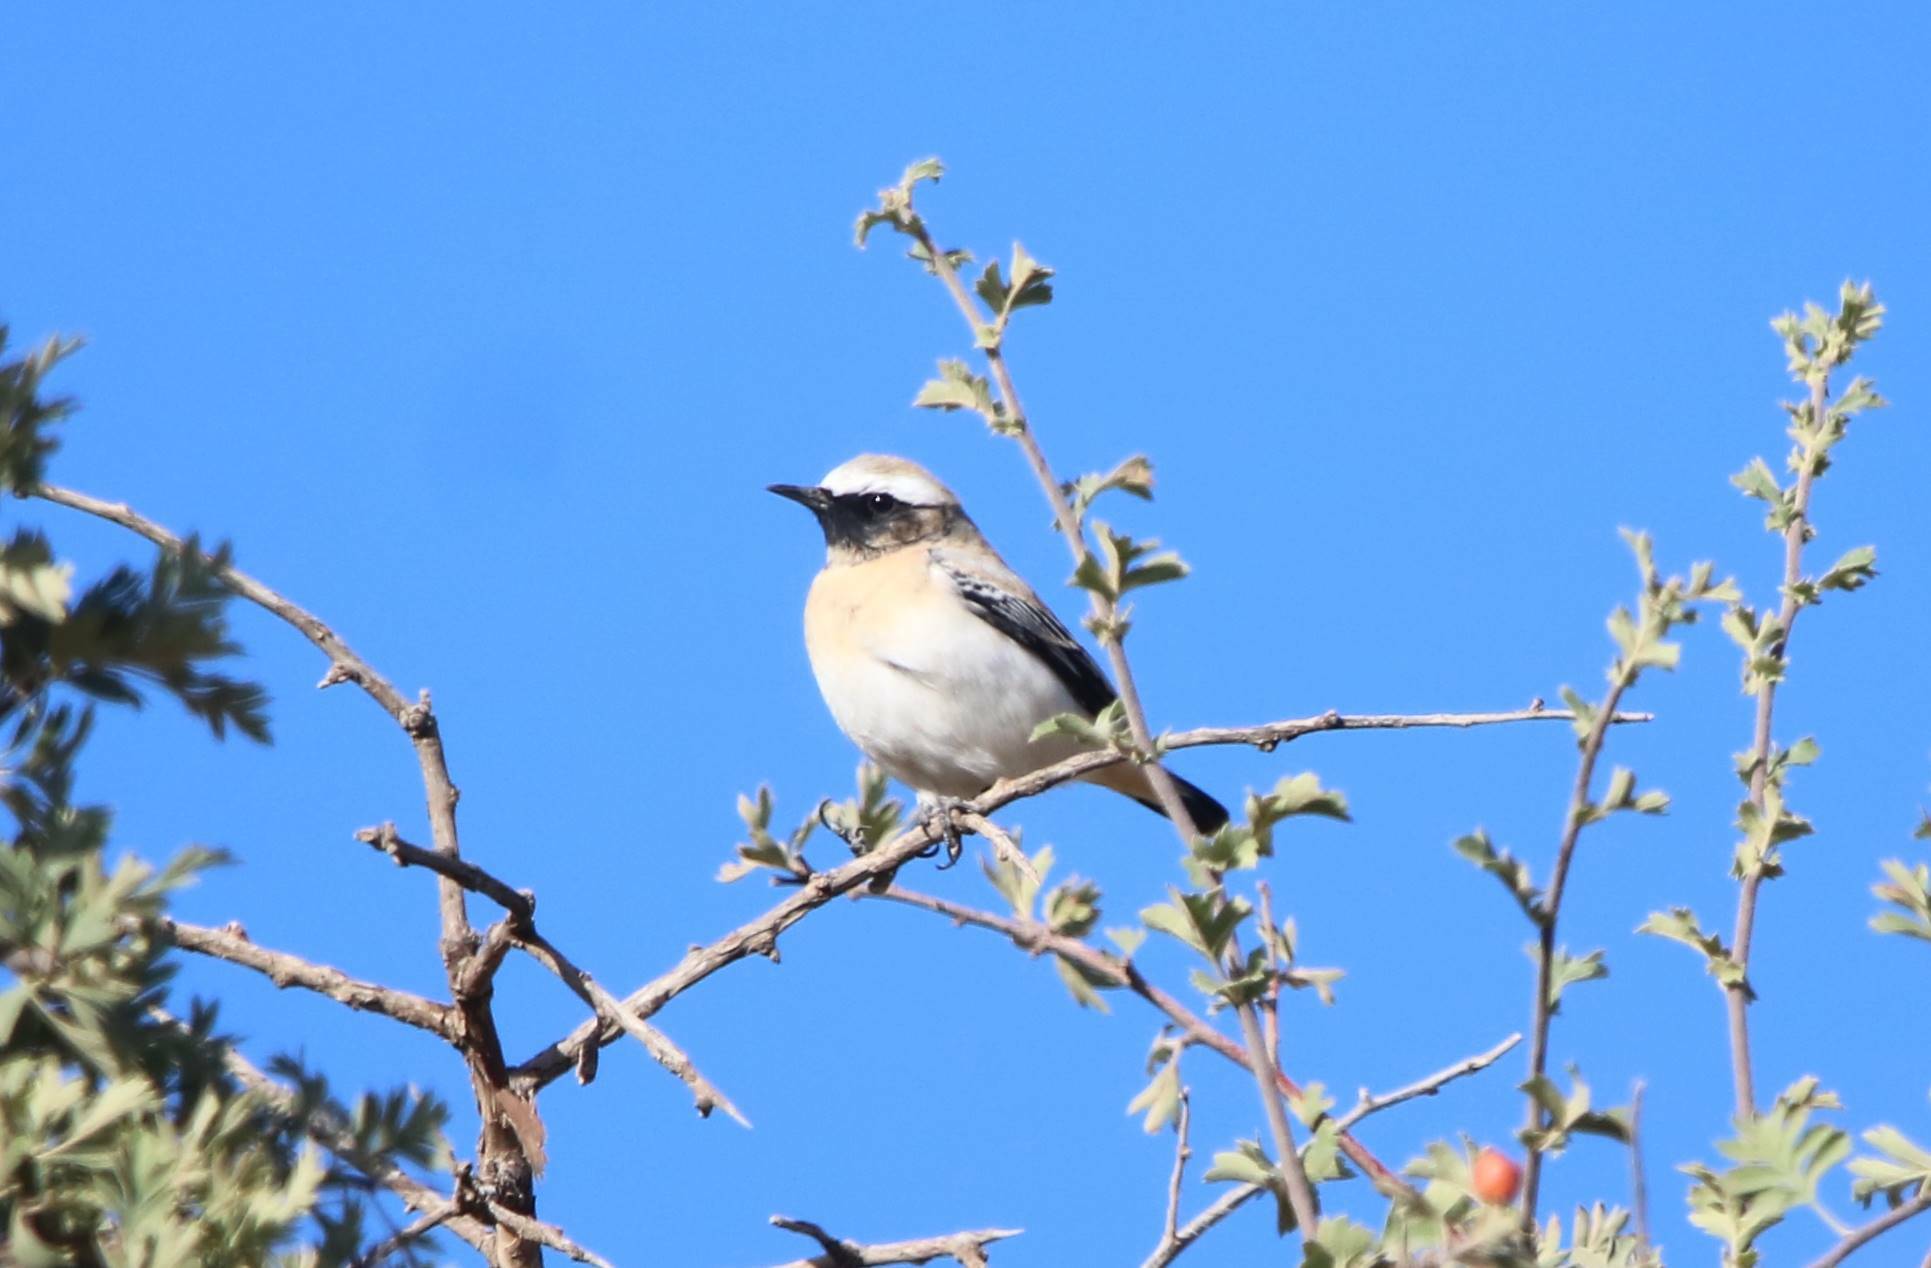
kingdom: Animalia
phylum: Chordata
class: Aves
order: Passeriformes
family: Muscicapidae
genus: Oenanthe
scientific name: Oenanthe oenanthe
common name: Northern wheatear
